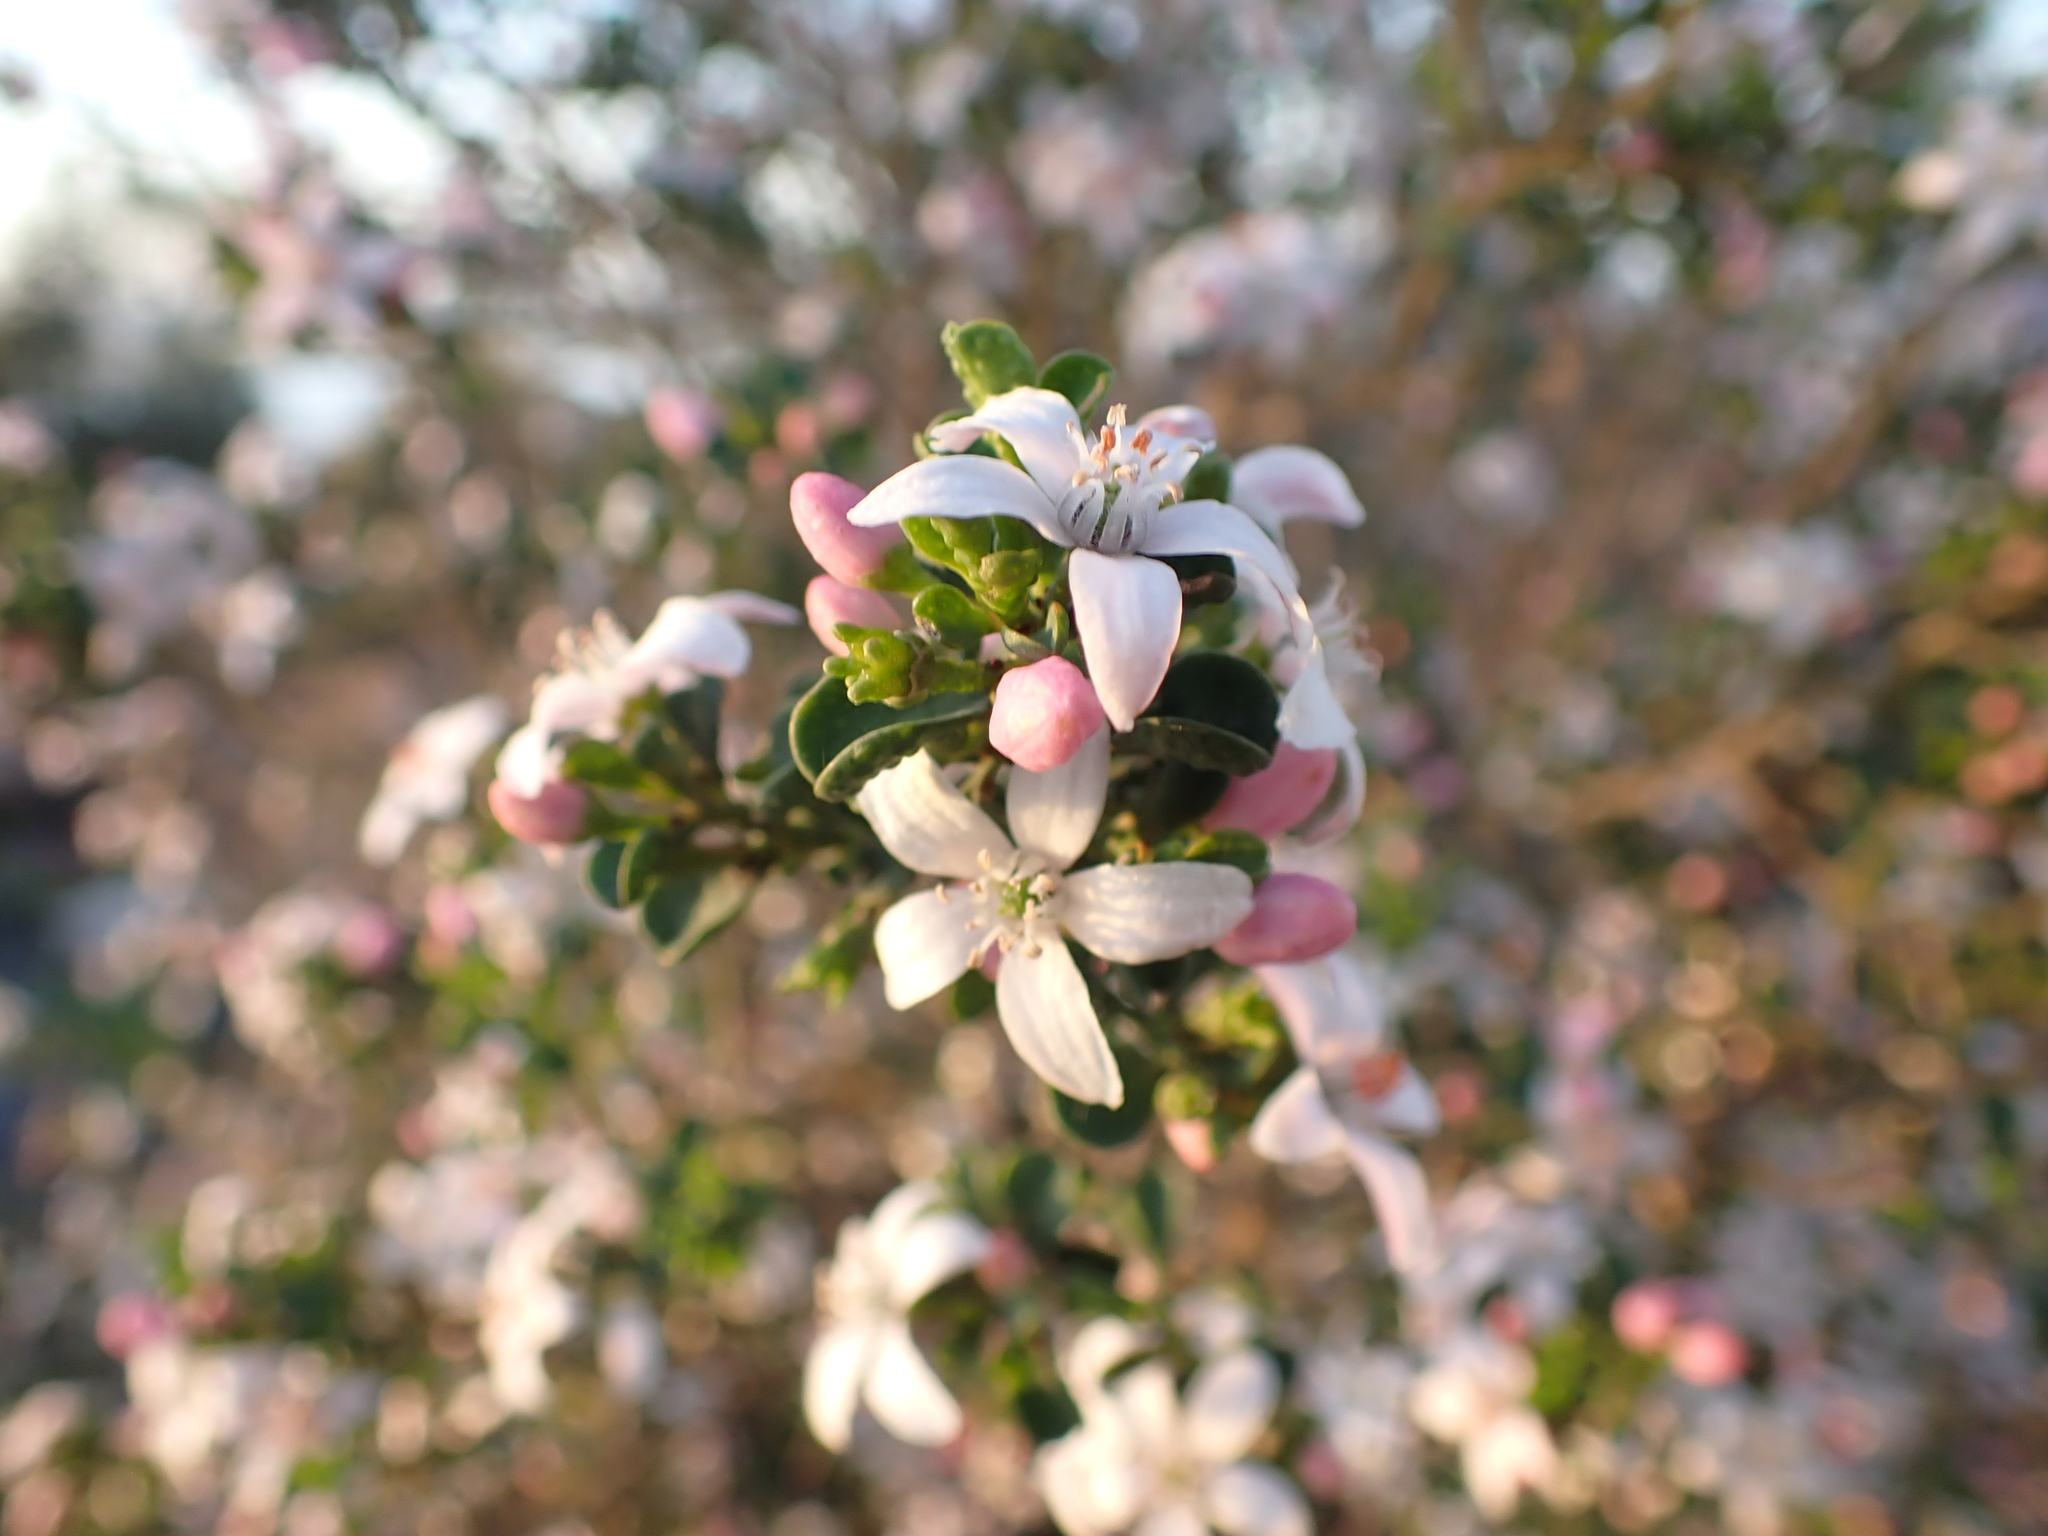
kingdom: Plantae
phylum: Tracheophyta
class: Magnoliopsida
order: Sapindales
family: Rutaceae
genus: Philotheca
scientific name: Philotheca verrucosa
